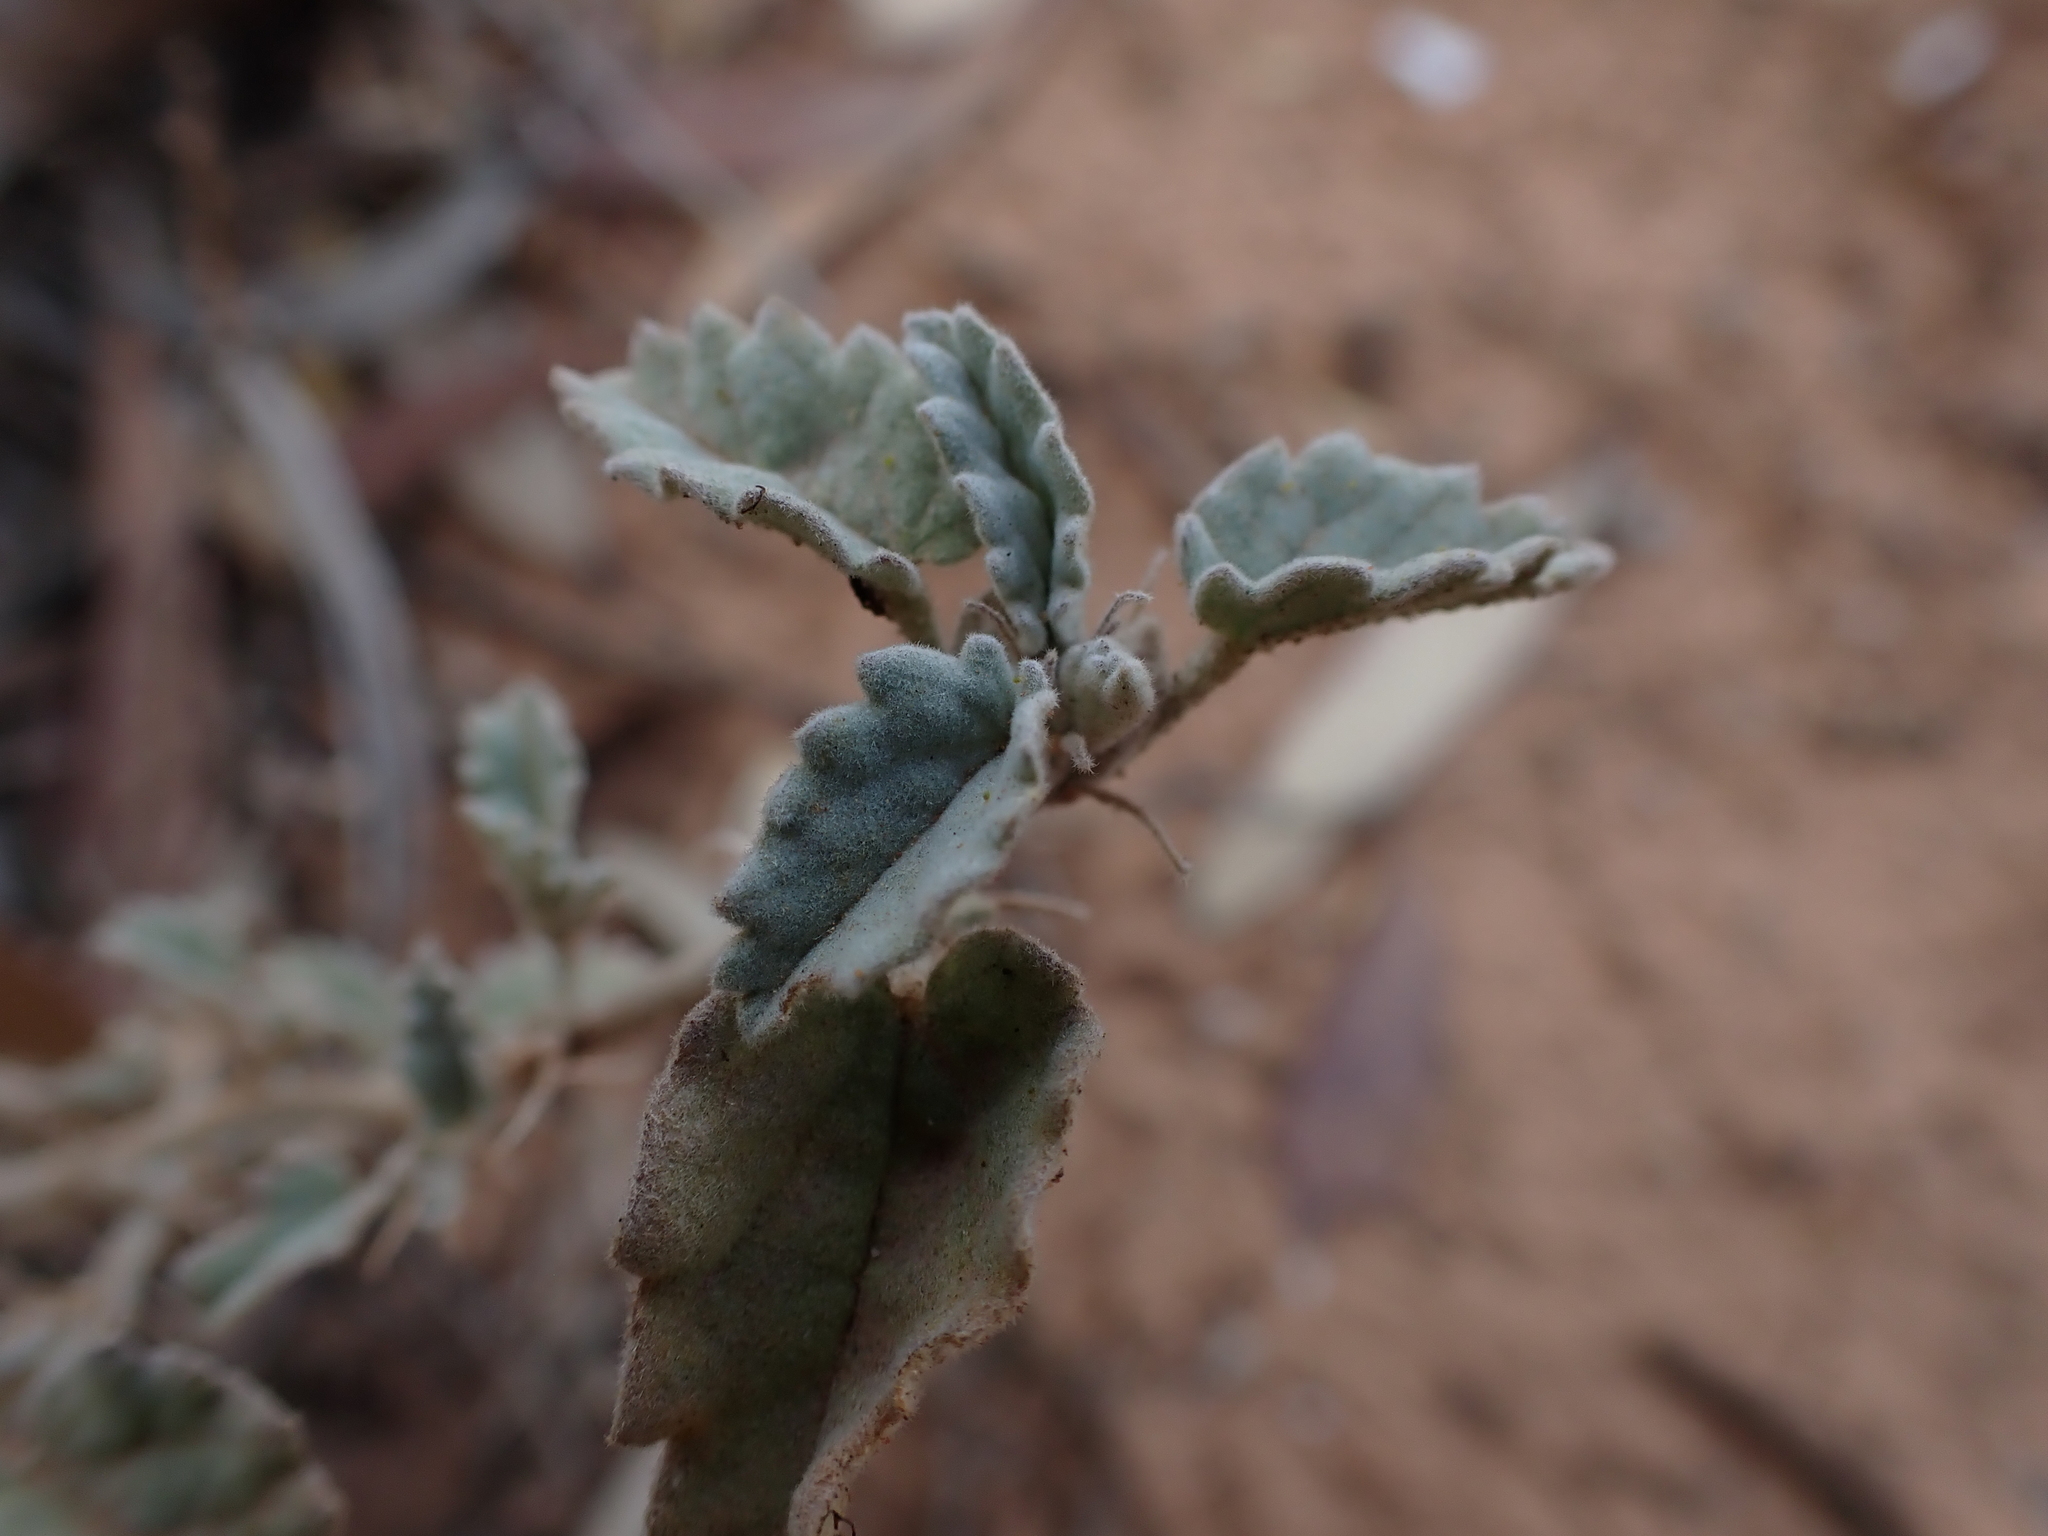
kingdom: Plantae
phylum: Tracheophyta
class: Magnoliopsida
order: Malvales
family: Malvaceae
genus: Sida
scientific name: Sida corrugata
